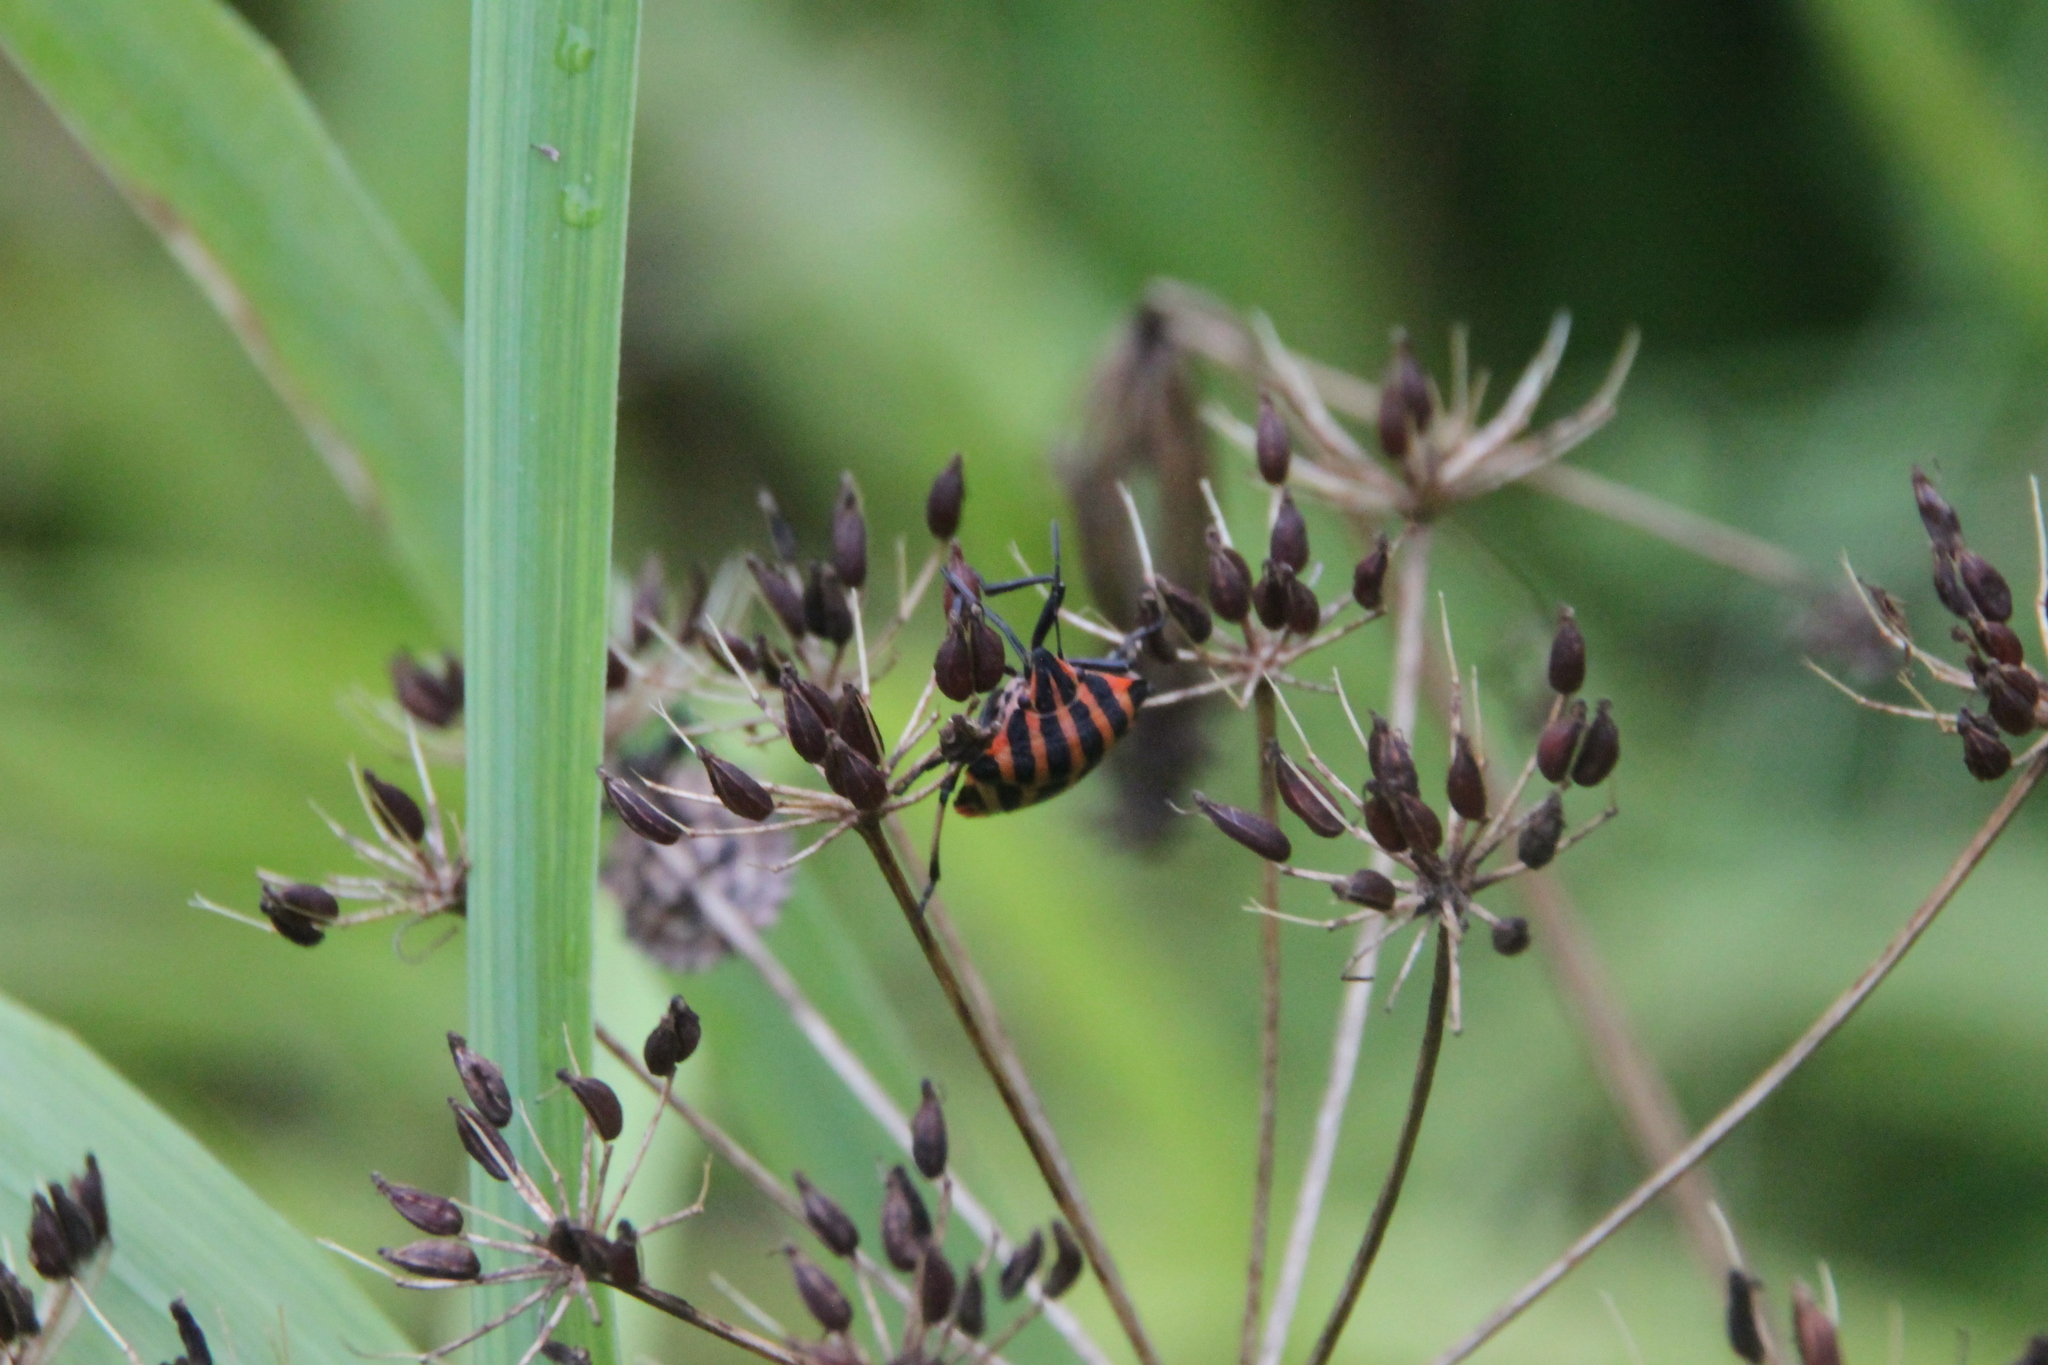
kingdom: Animalia
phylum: Arthropoda
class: Insecta
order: Hemiptera
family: Pentatomidae
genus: Graphosoma
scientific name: Graphosoma italicum
